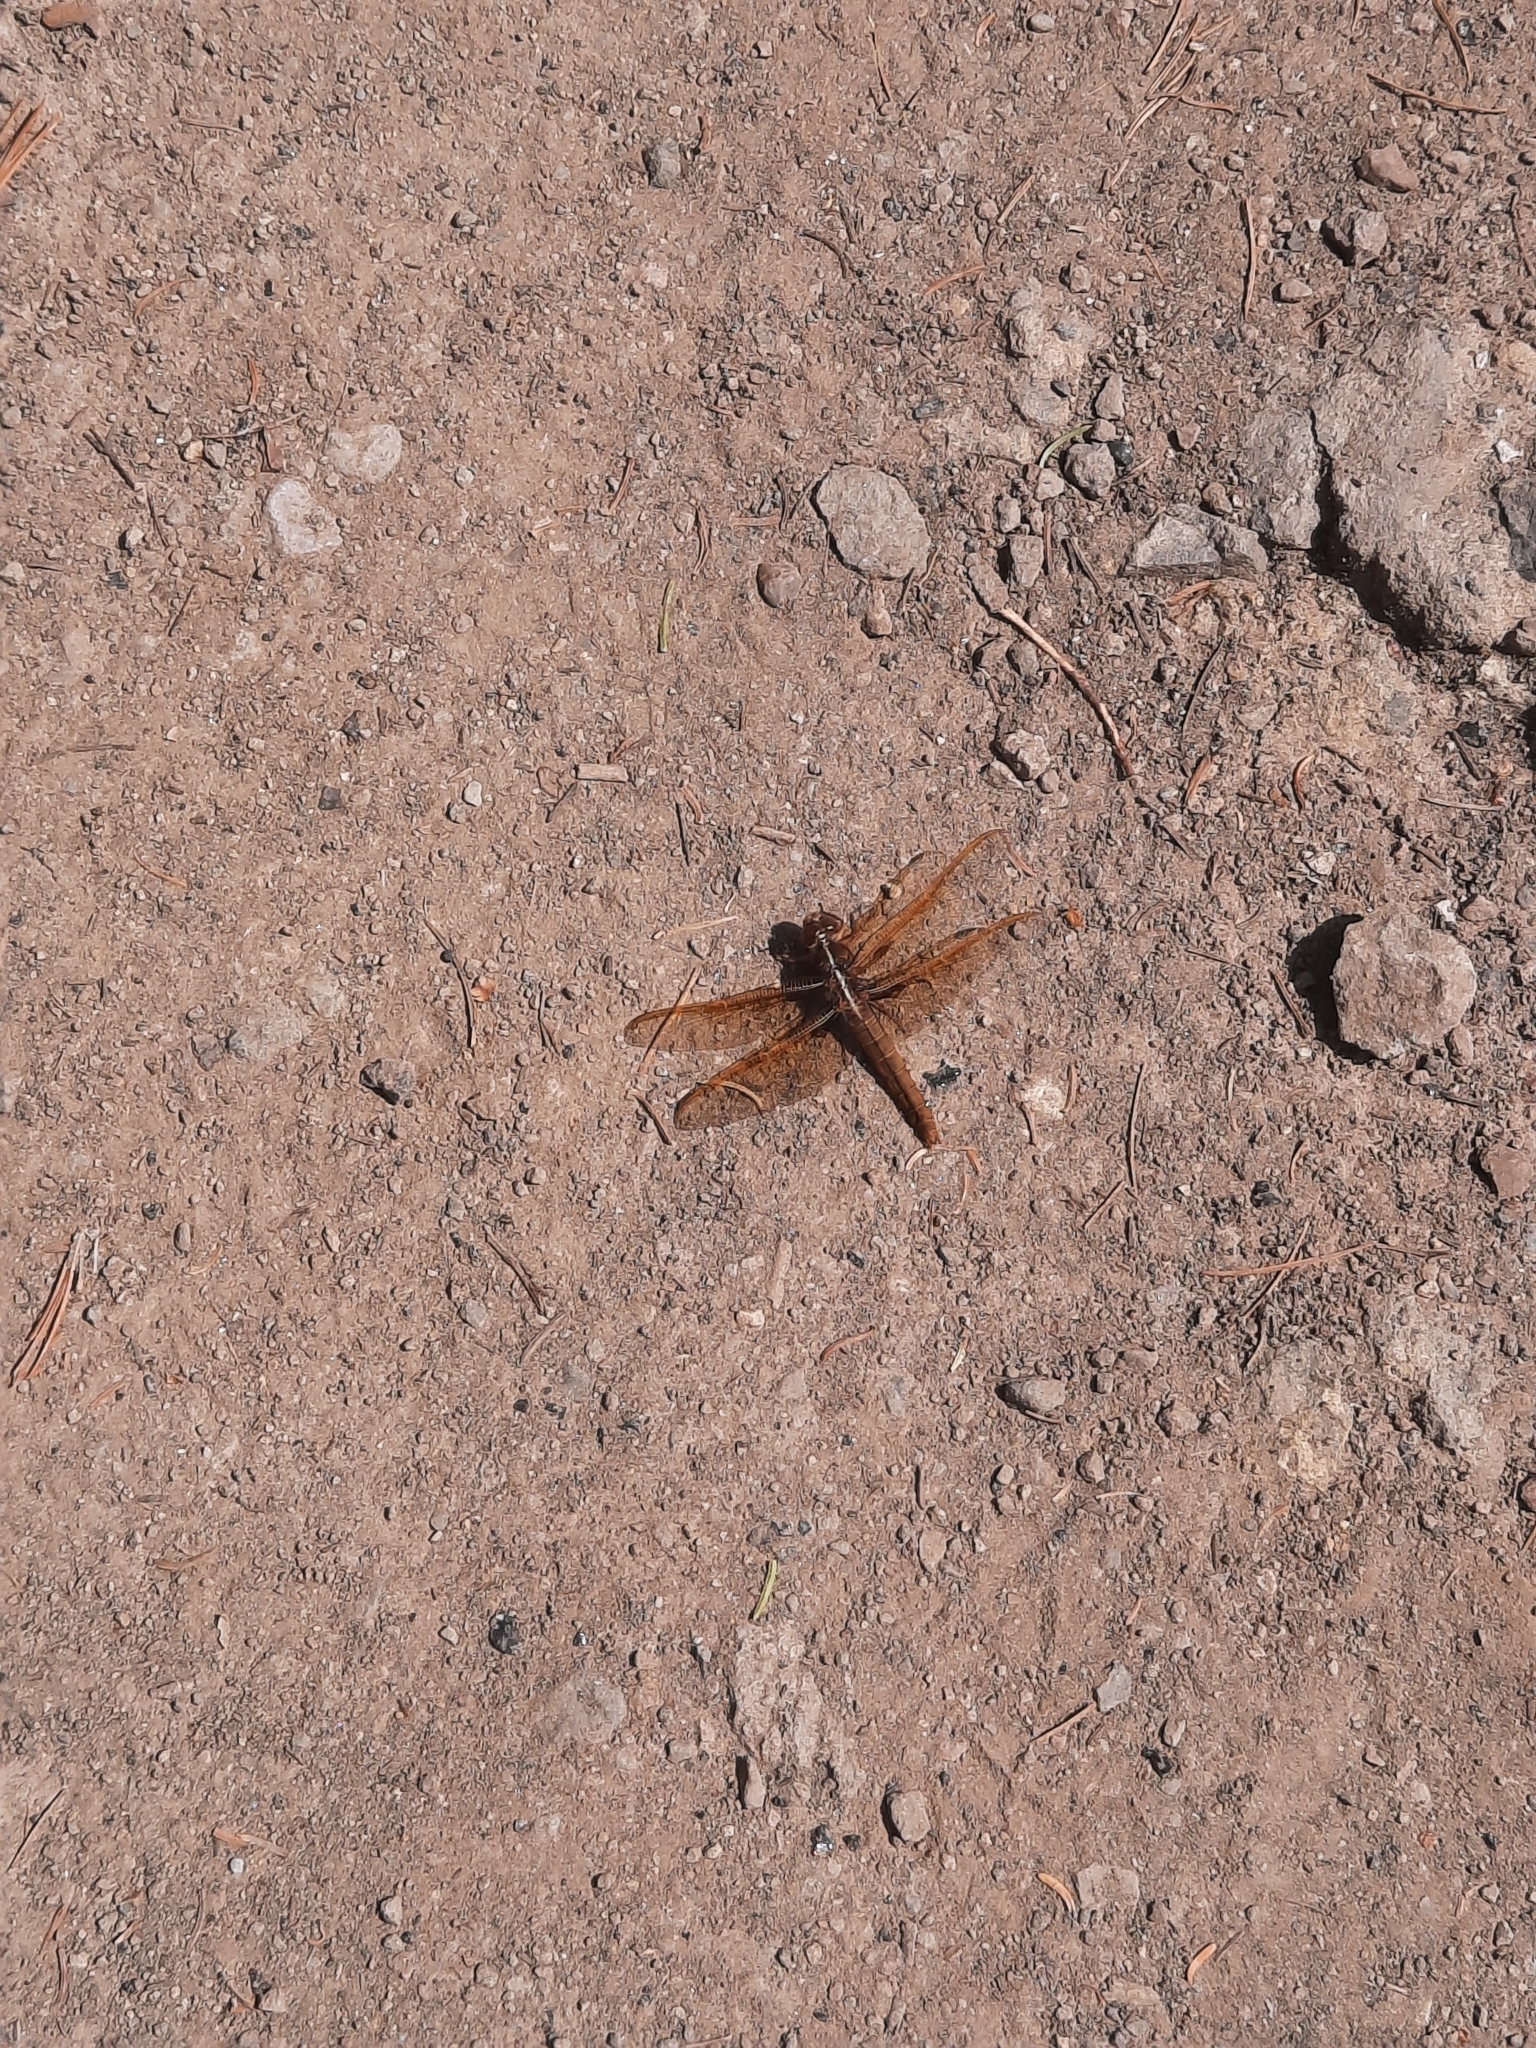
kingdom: Animalia
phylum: Arthropoda
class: Insecta
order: Odonata
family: Libellulidae
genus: Libellula
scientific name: Libellula saturata
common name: Flame skimmer
